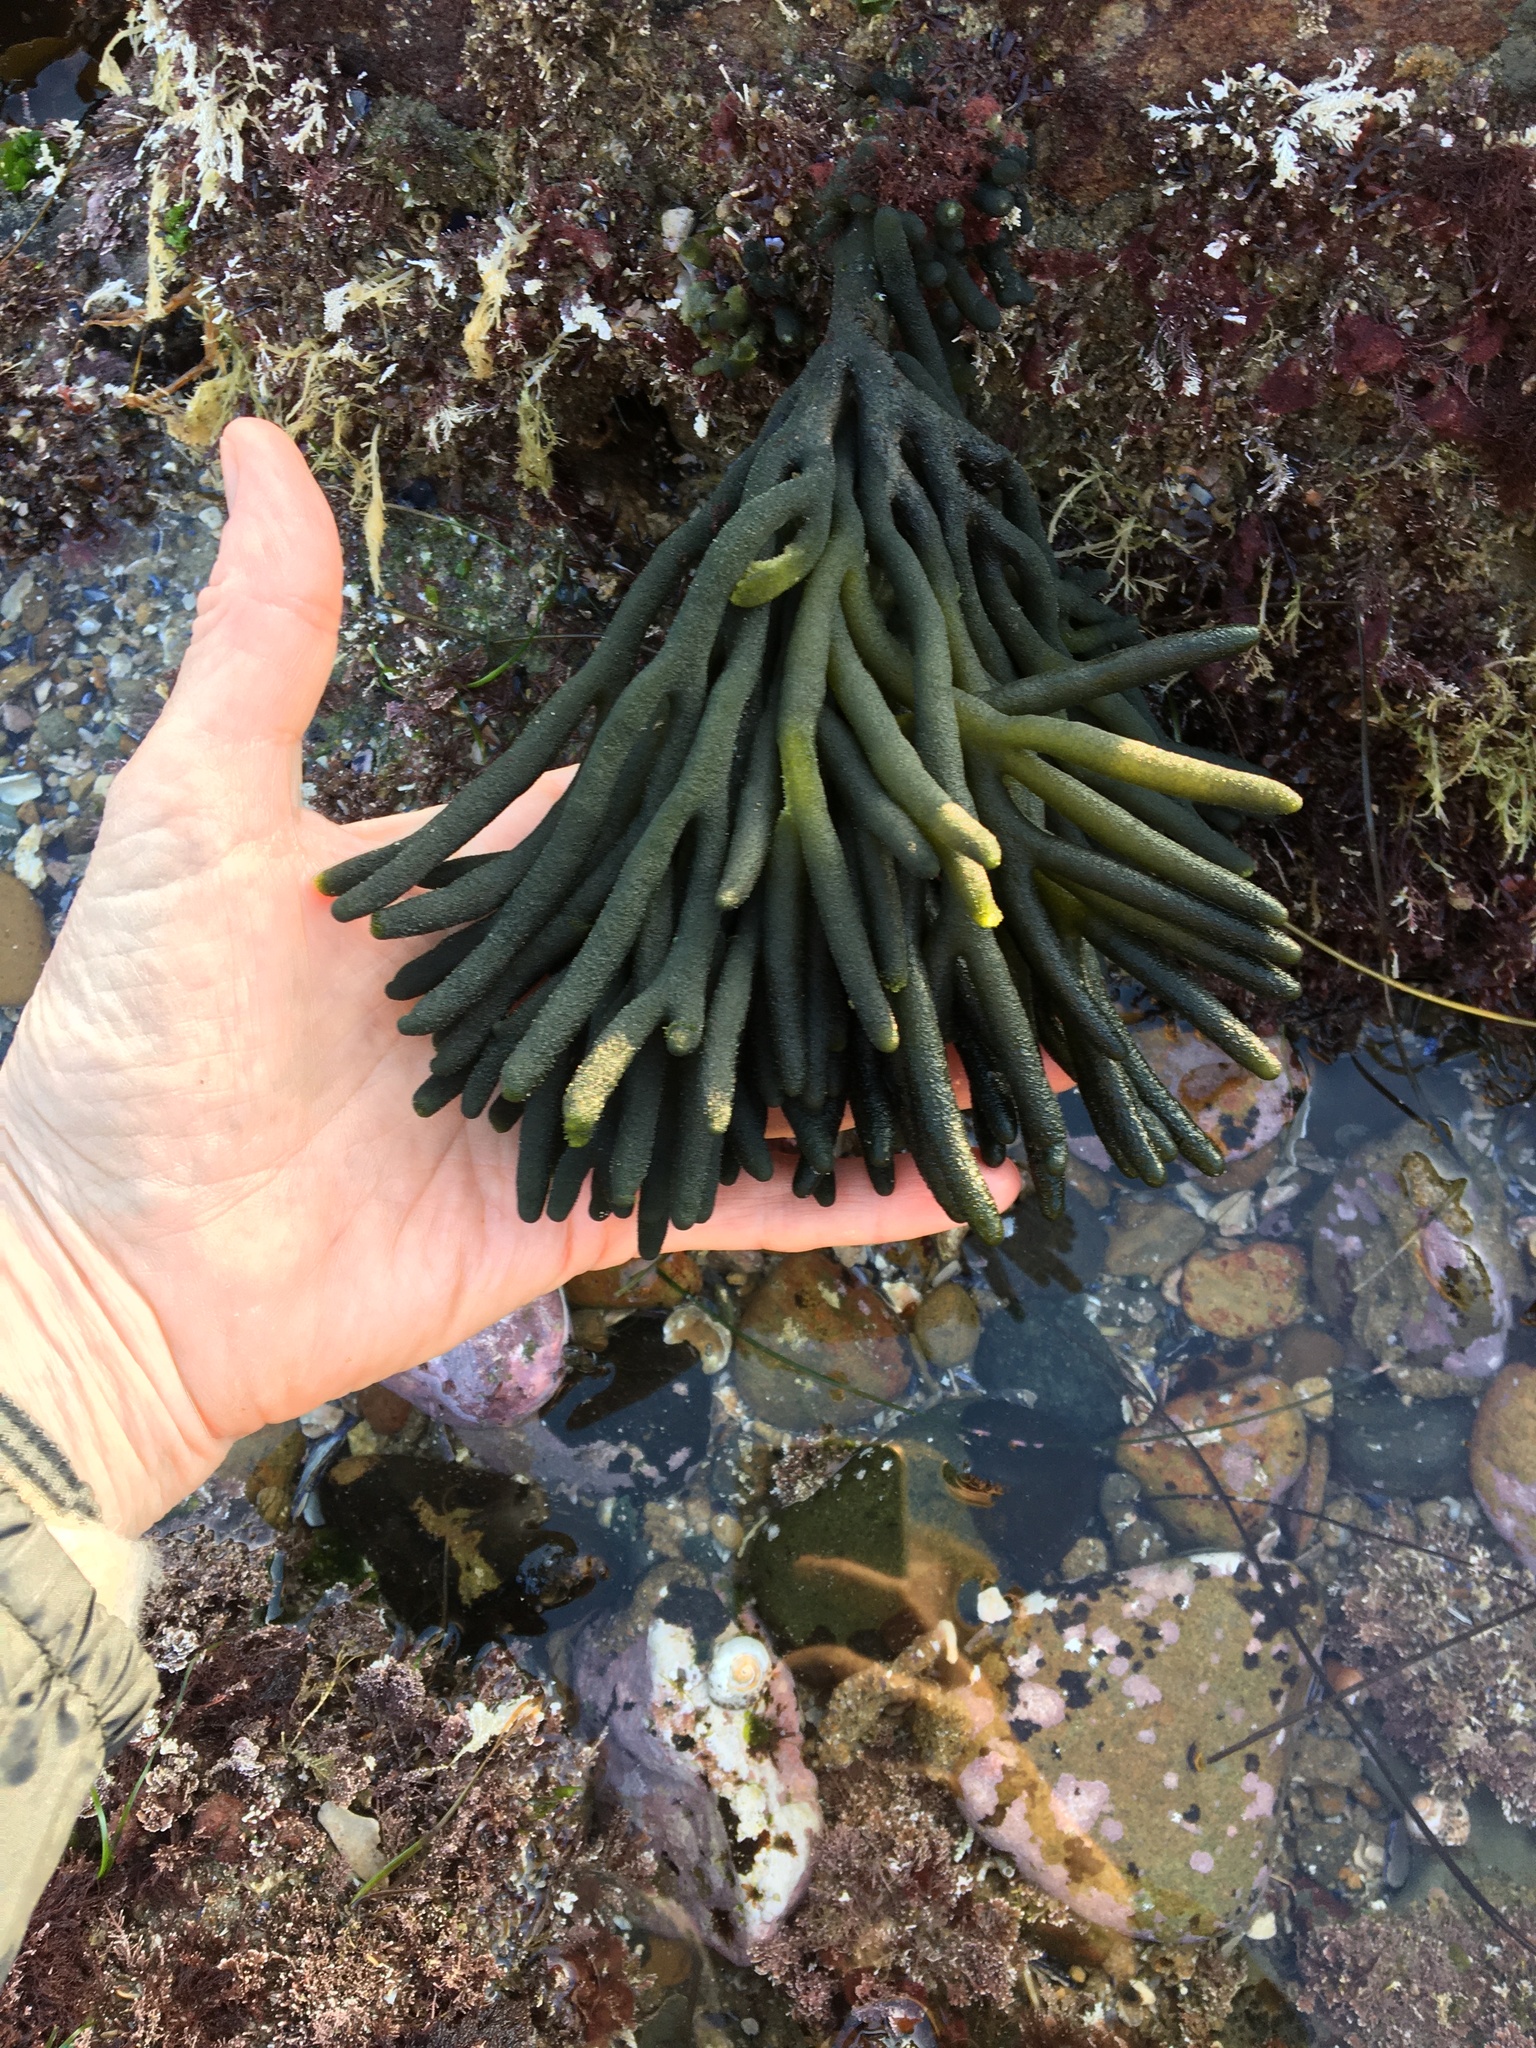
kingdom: Plantae
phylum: Chlorophyta
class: Ulvophyceae
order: Bryopsidales
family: Codiaceae
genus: Codium
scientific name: Codium fragile
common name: Dead man's fingers
